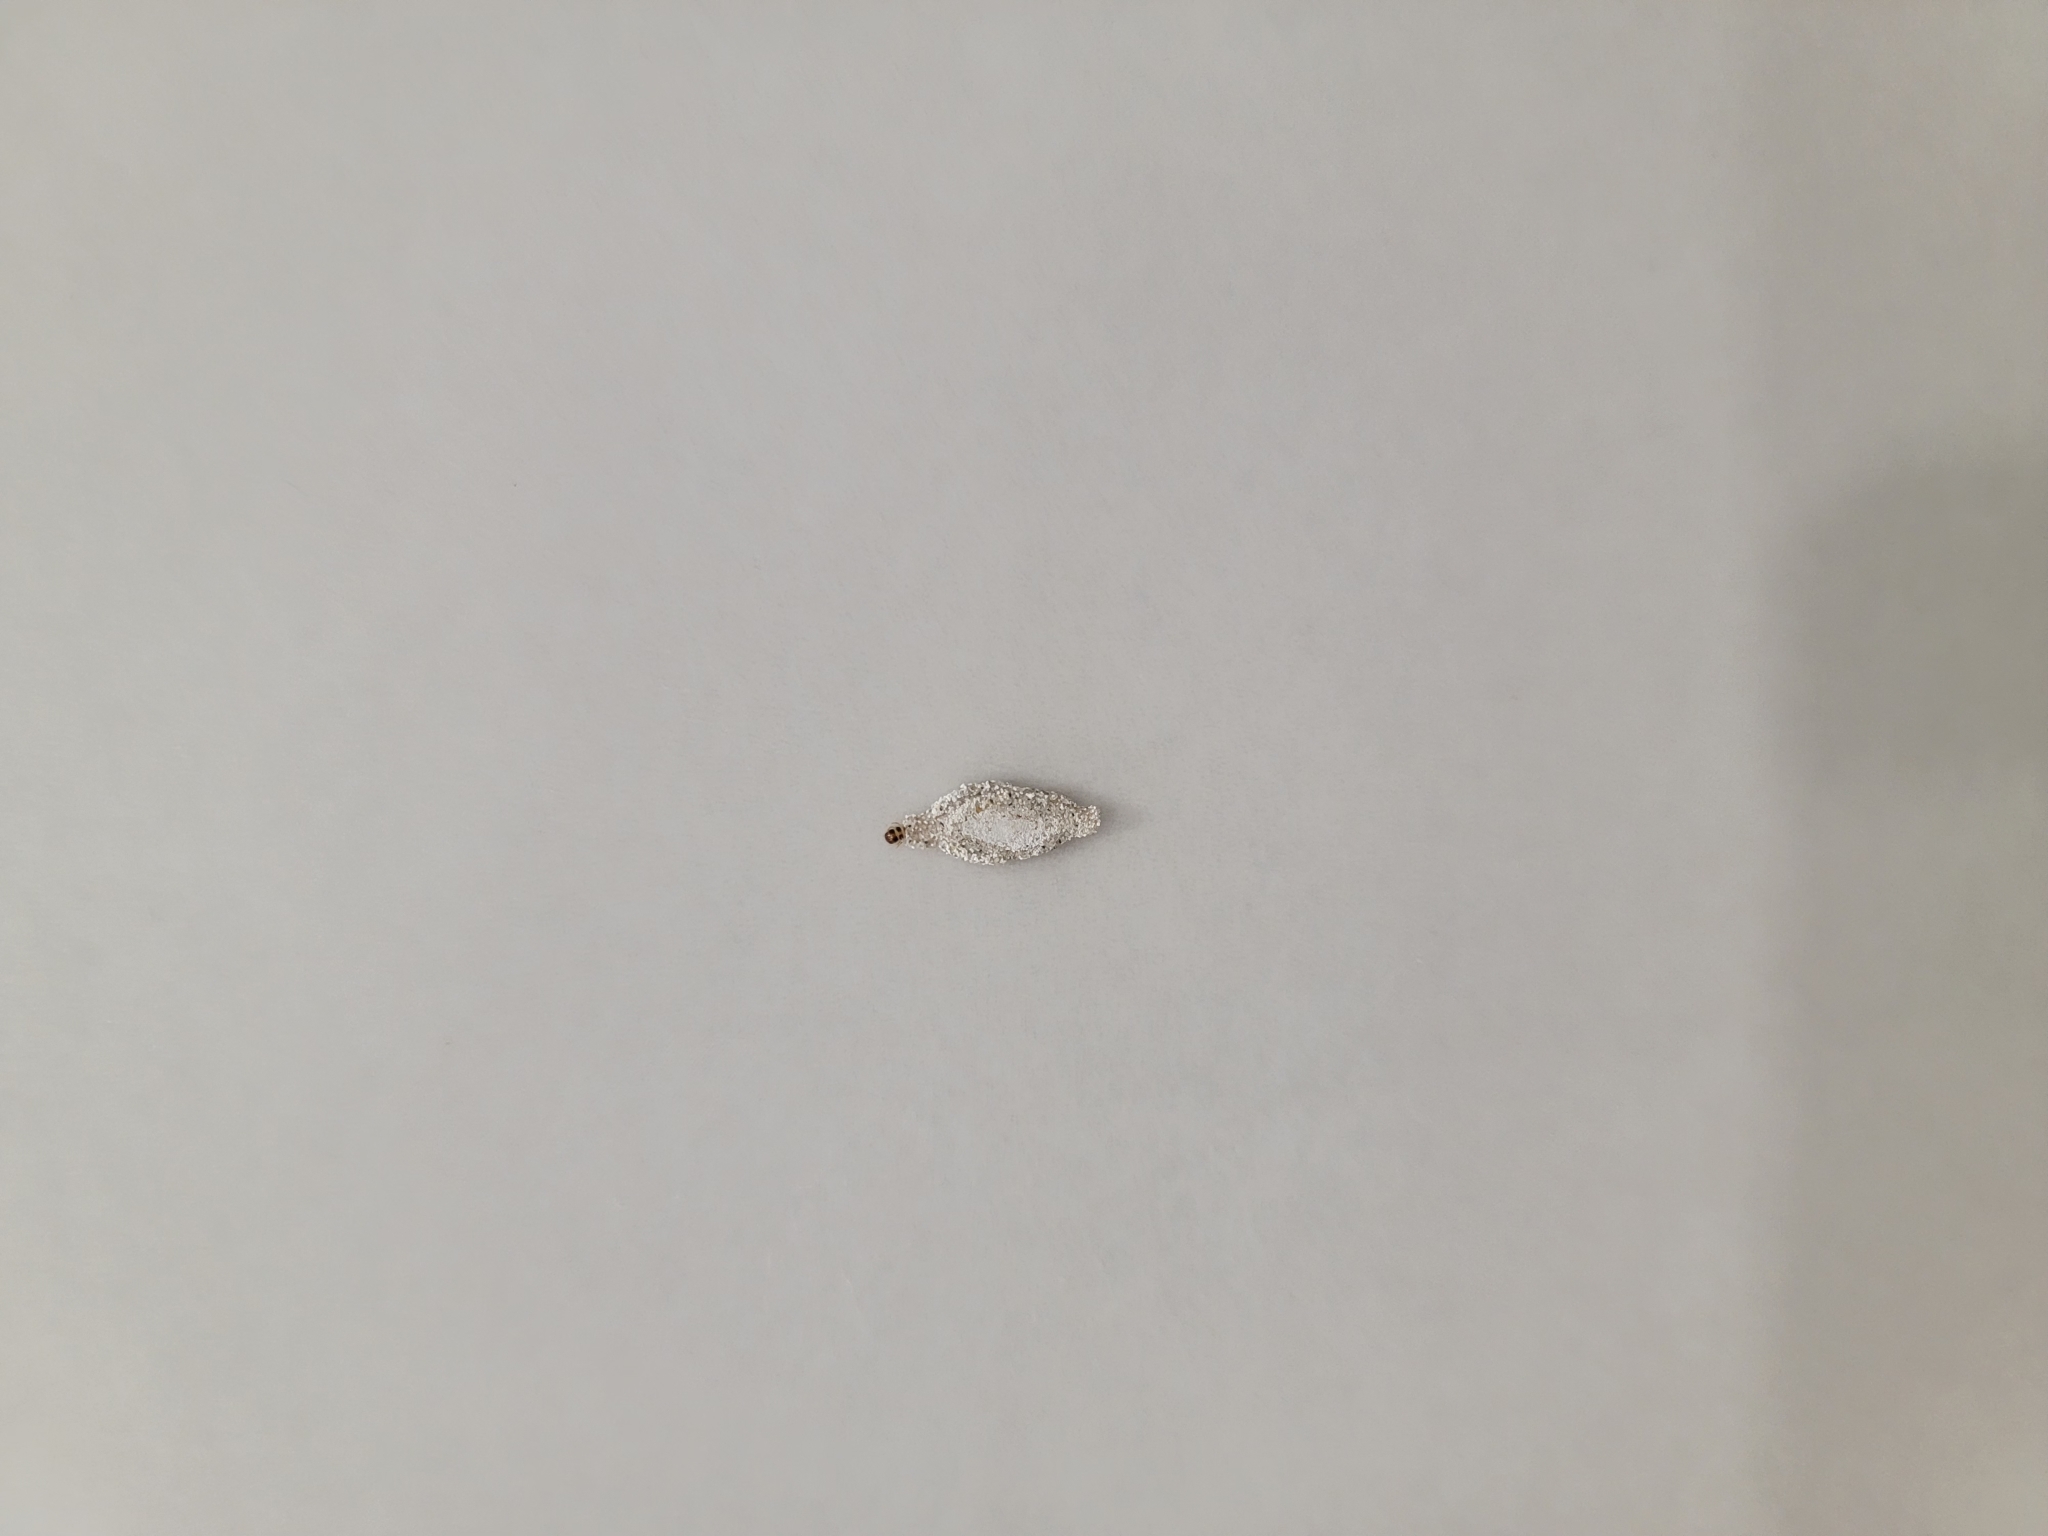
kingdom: Animalia
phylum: Arthropoda
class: Insecta
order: Lepidoptera
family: Tineidae
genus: Phereoeca
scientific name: Phereoeca uterella
